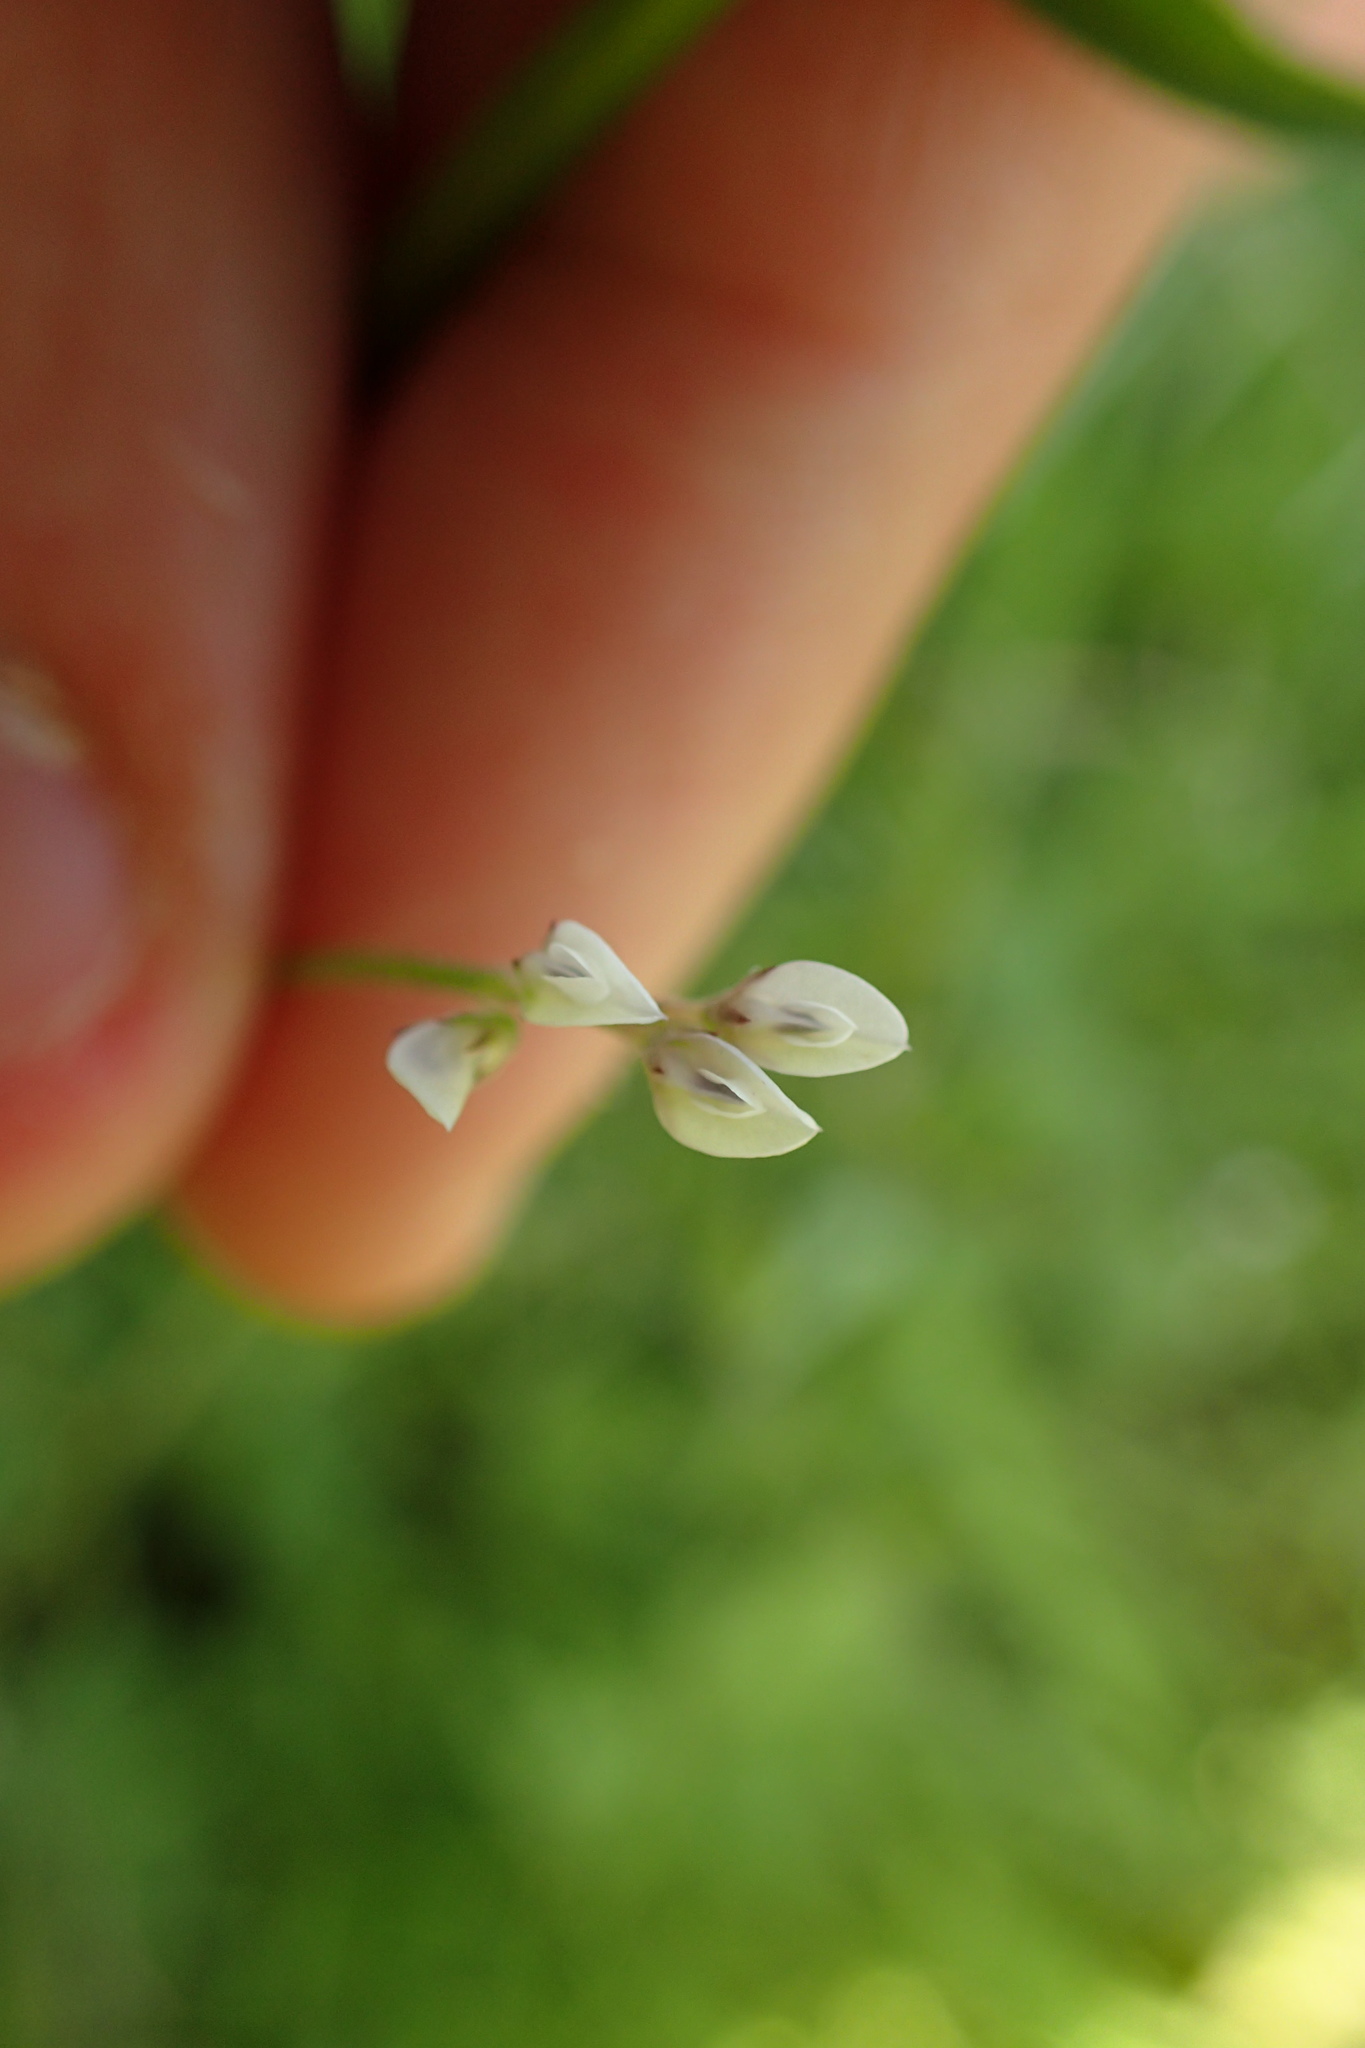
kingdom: Plantae
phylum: Tracheophyta
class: Magnoliopsida
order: Fabales
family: Fabaceae
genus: Vicia
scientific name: Vicia hirsuta
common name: Tiny vetch
